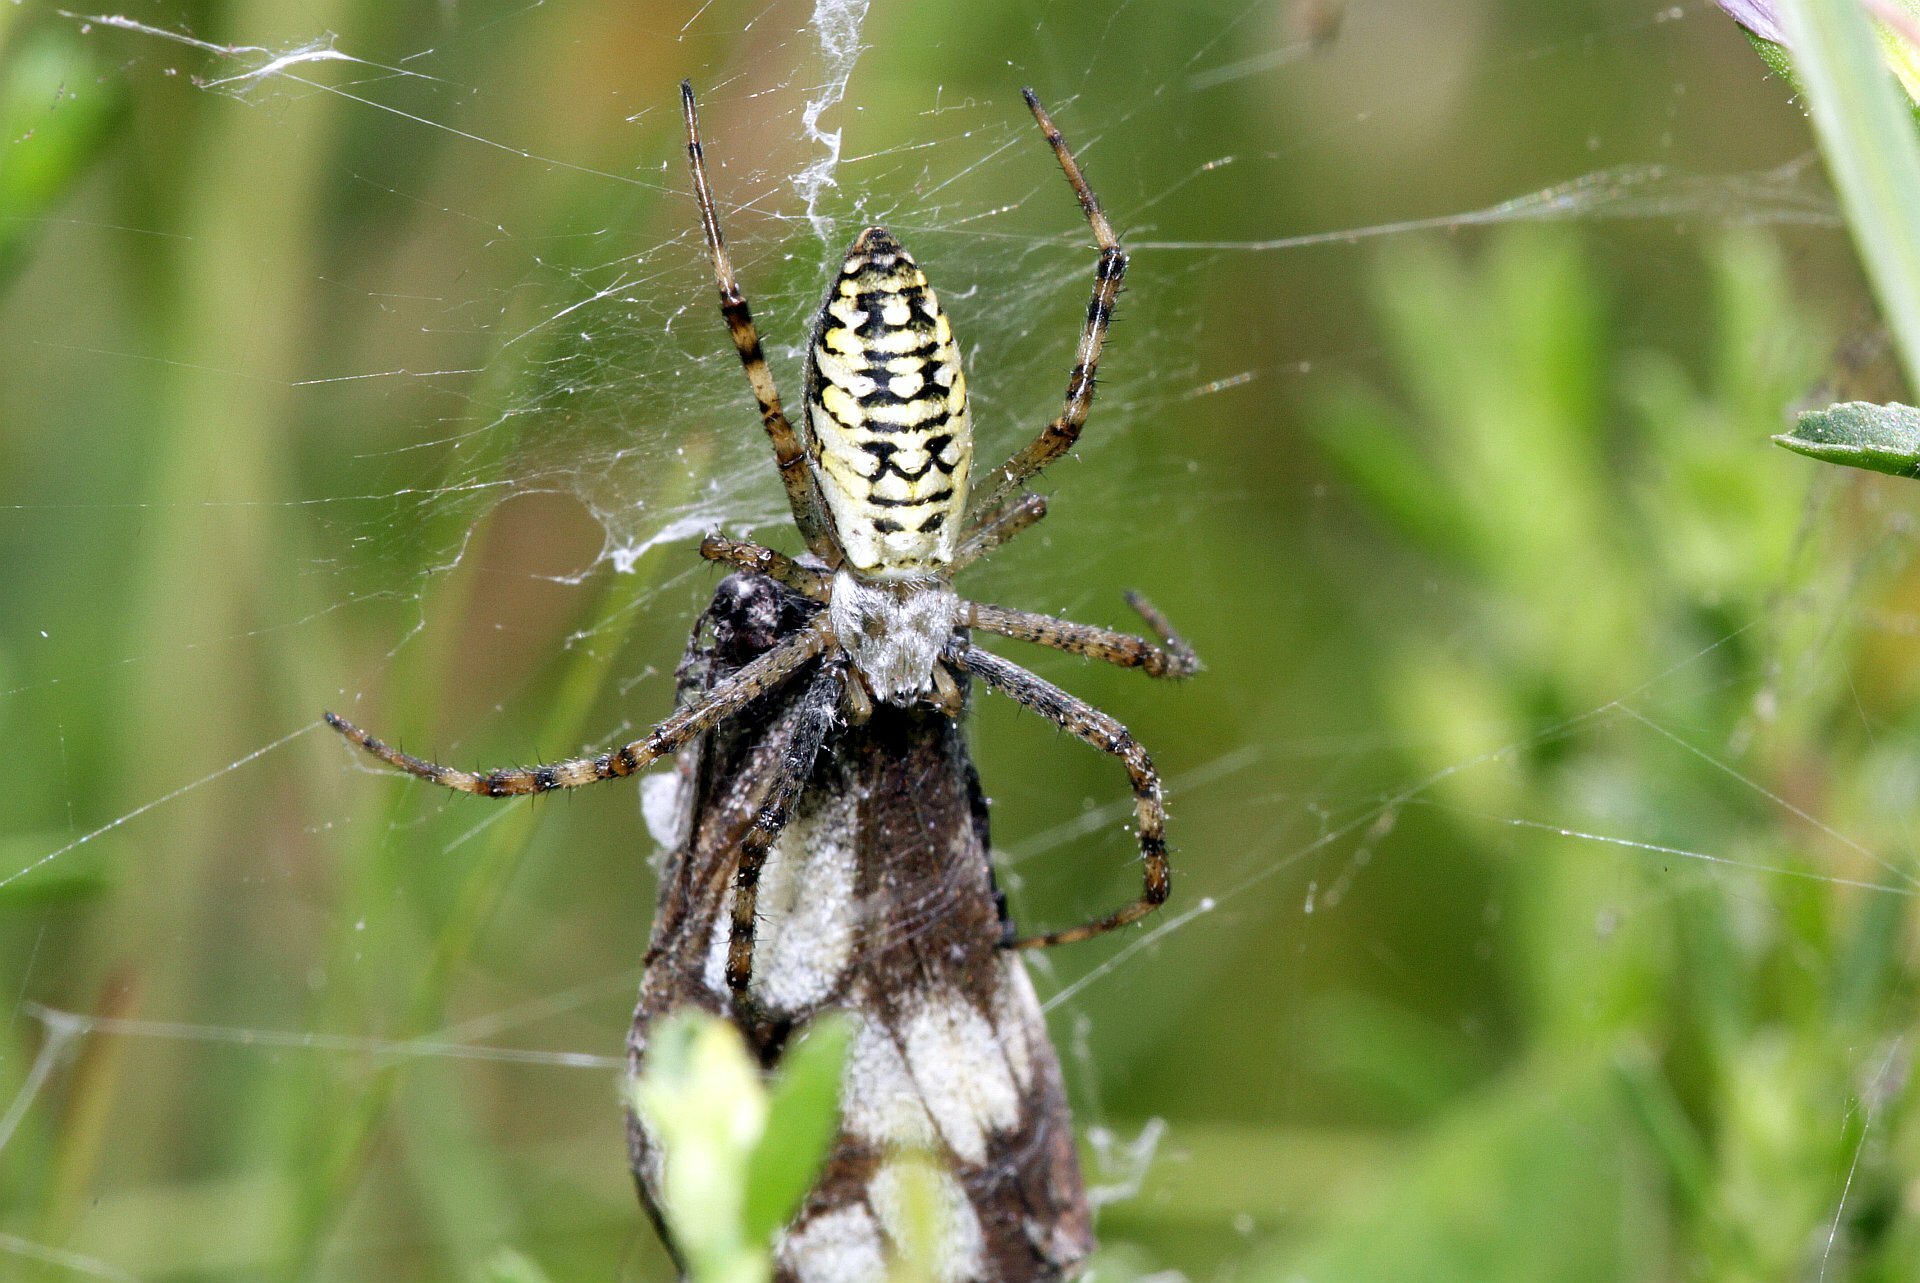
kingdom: Animalia
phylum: Arthropoda
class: Arachnida
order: Araneae
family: Araneidae
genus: Argiope
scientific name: Argiope bruennichi
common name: Wasp spider
